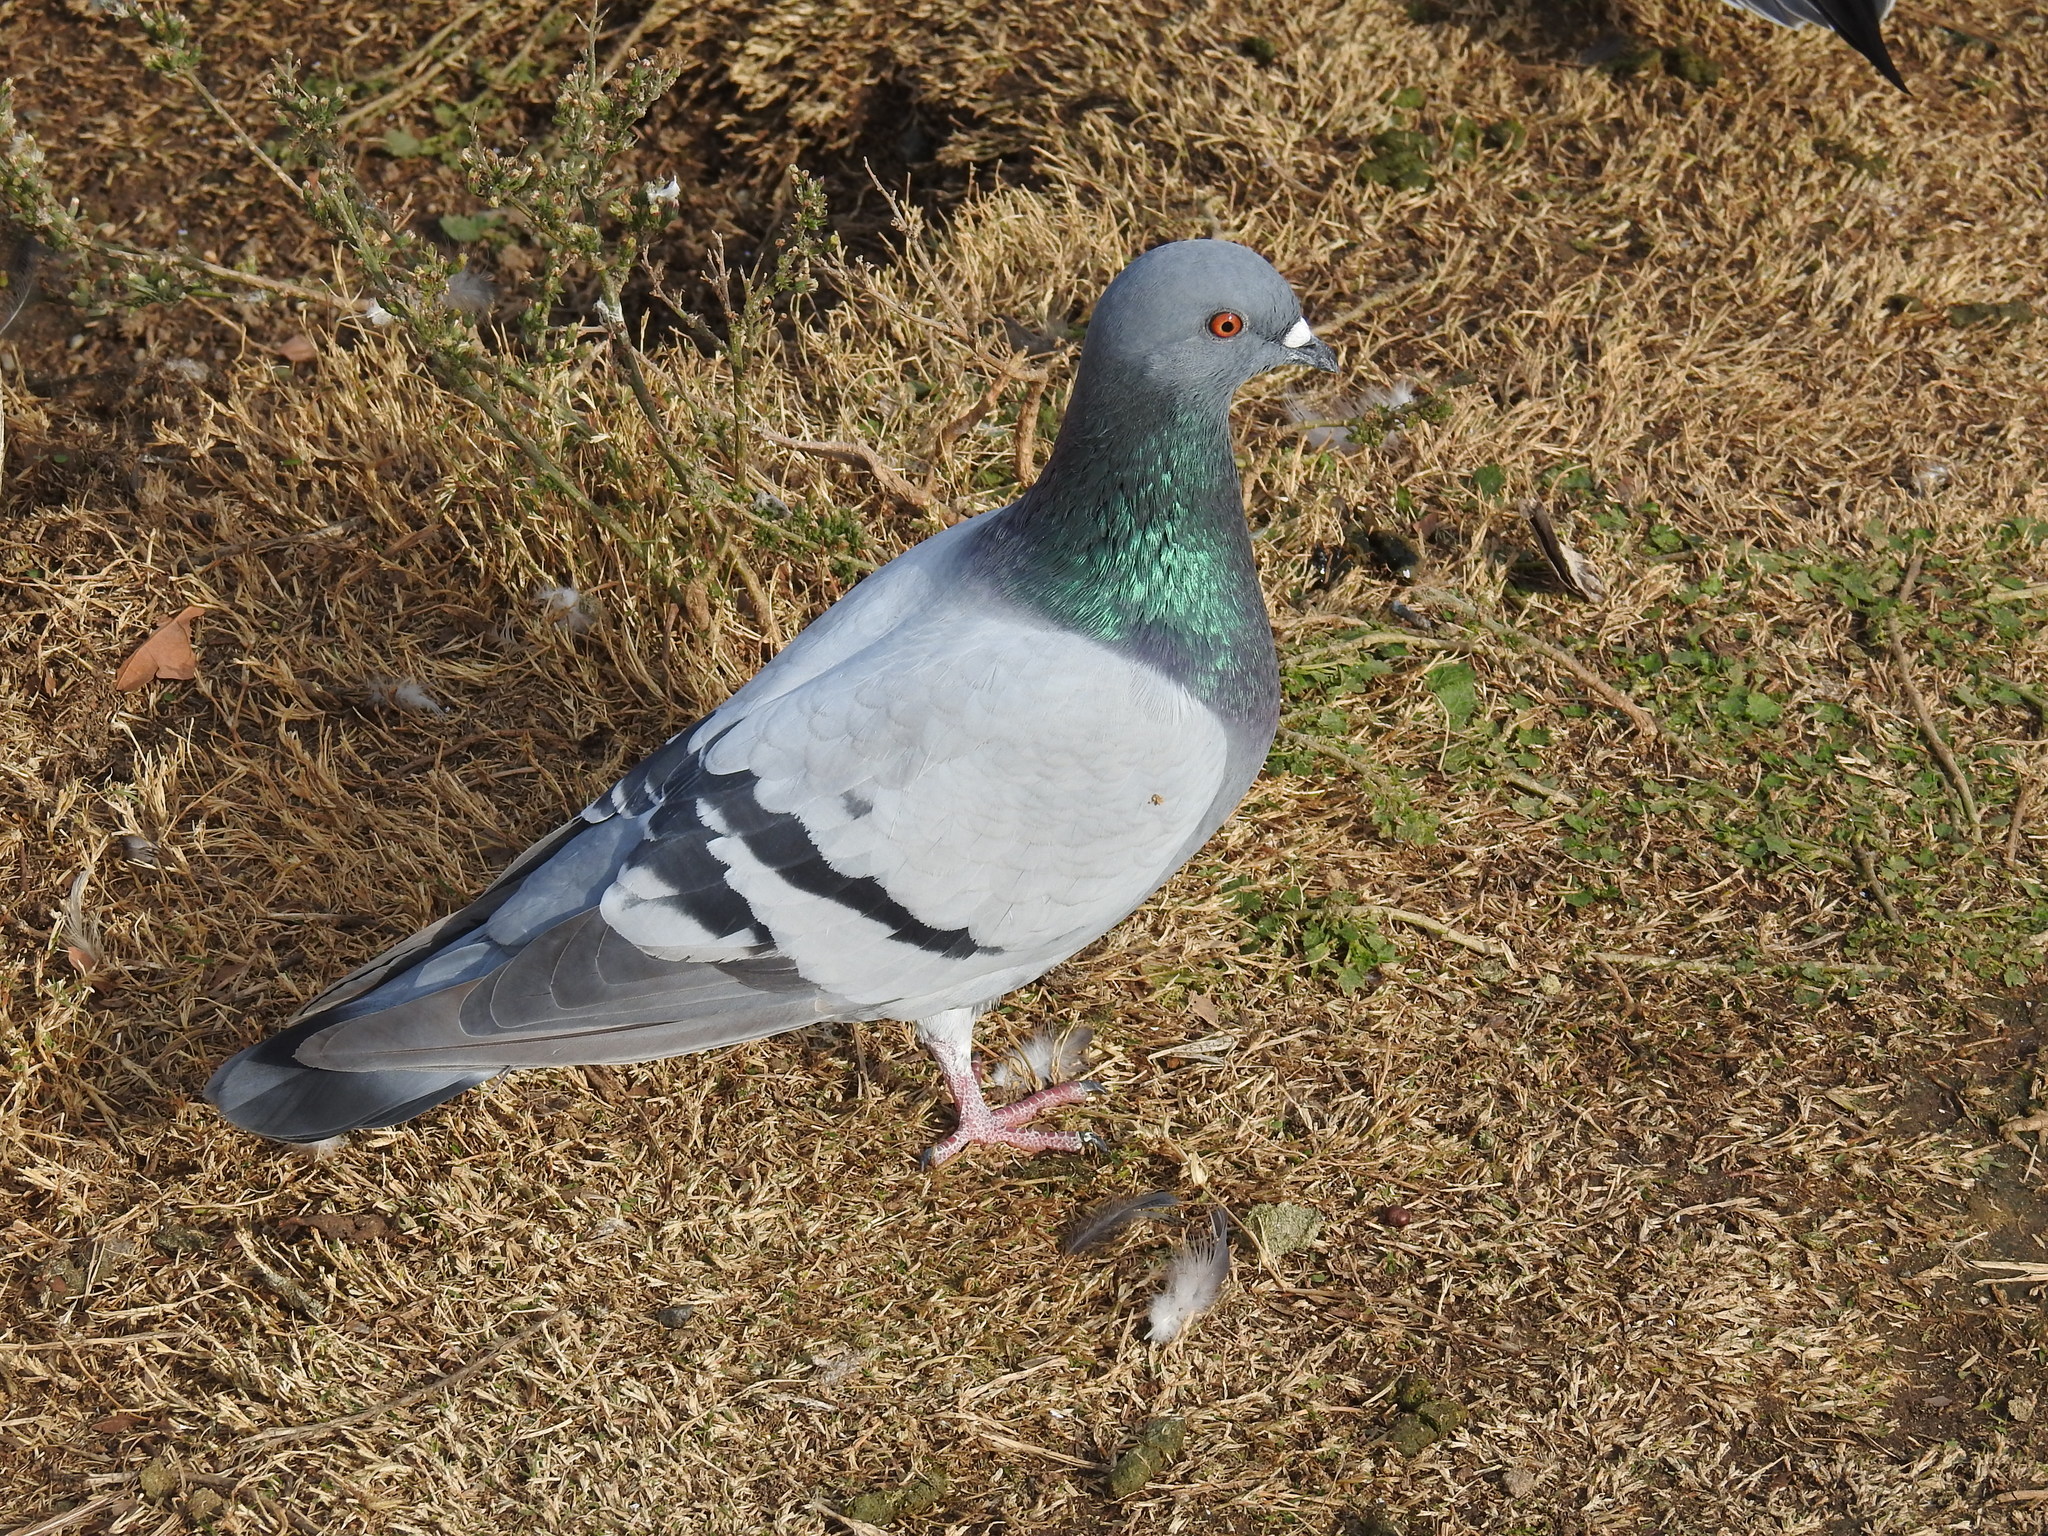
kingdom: Animalia
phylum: Chordata
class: Aves
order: Columbiformes
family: Columbidae
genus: Columba
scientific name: Columba livia
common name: Rock pigeon
